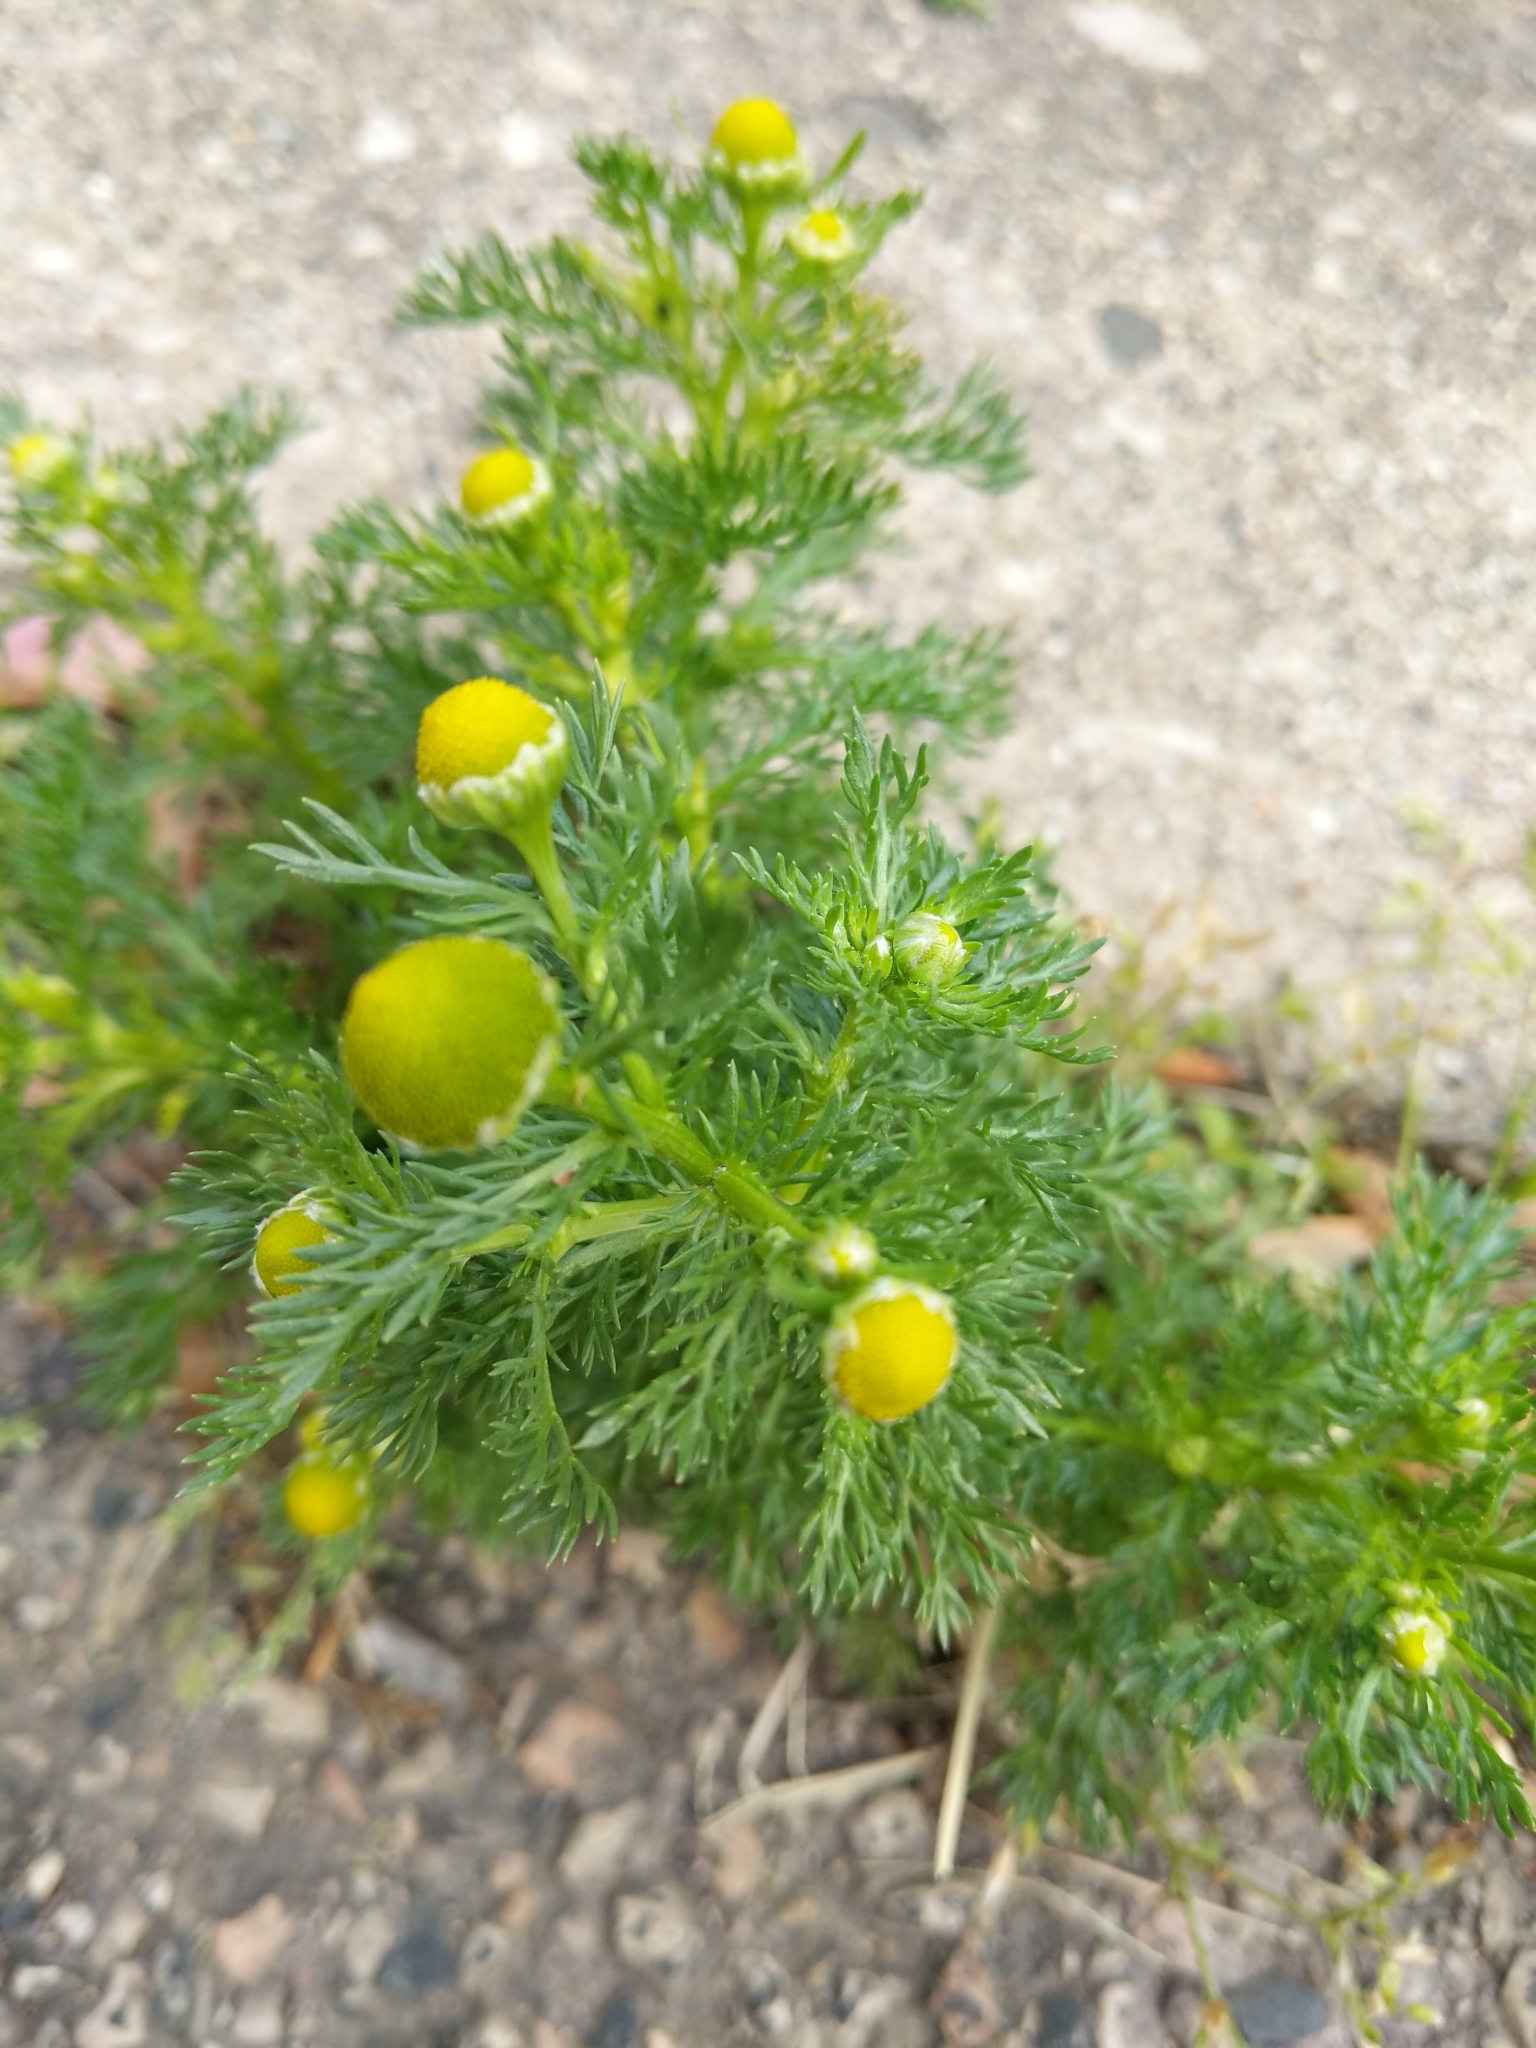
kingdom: Plantae
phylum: Tracheophyta
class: Magnoliopsida
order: Asterales
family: Asteraceae
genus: Matricaria
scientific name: Matricaria discoidea
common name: Disc mayweed
